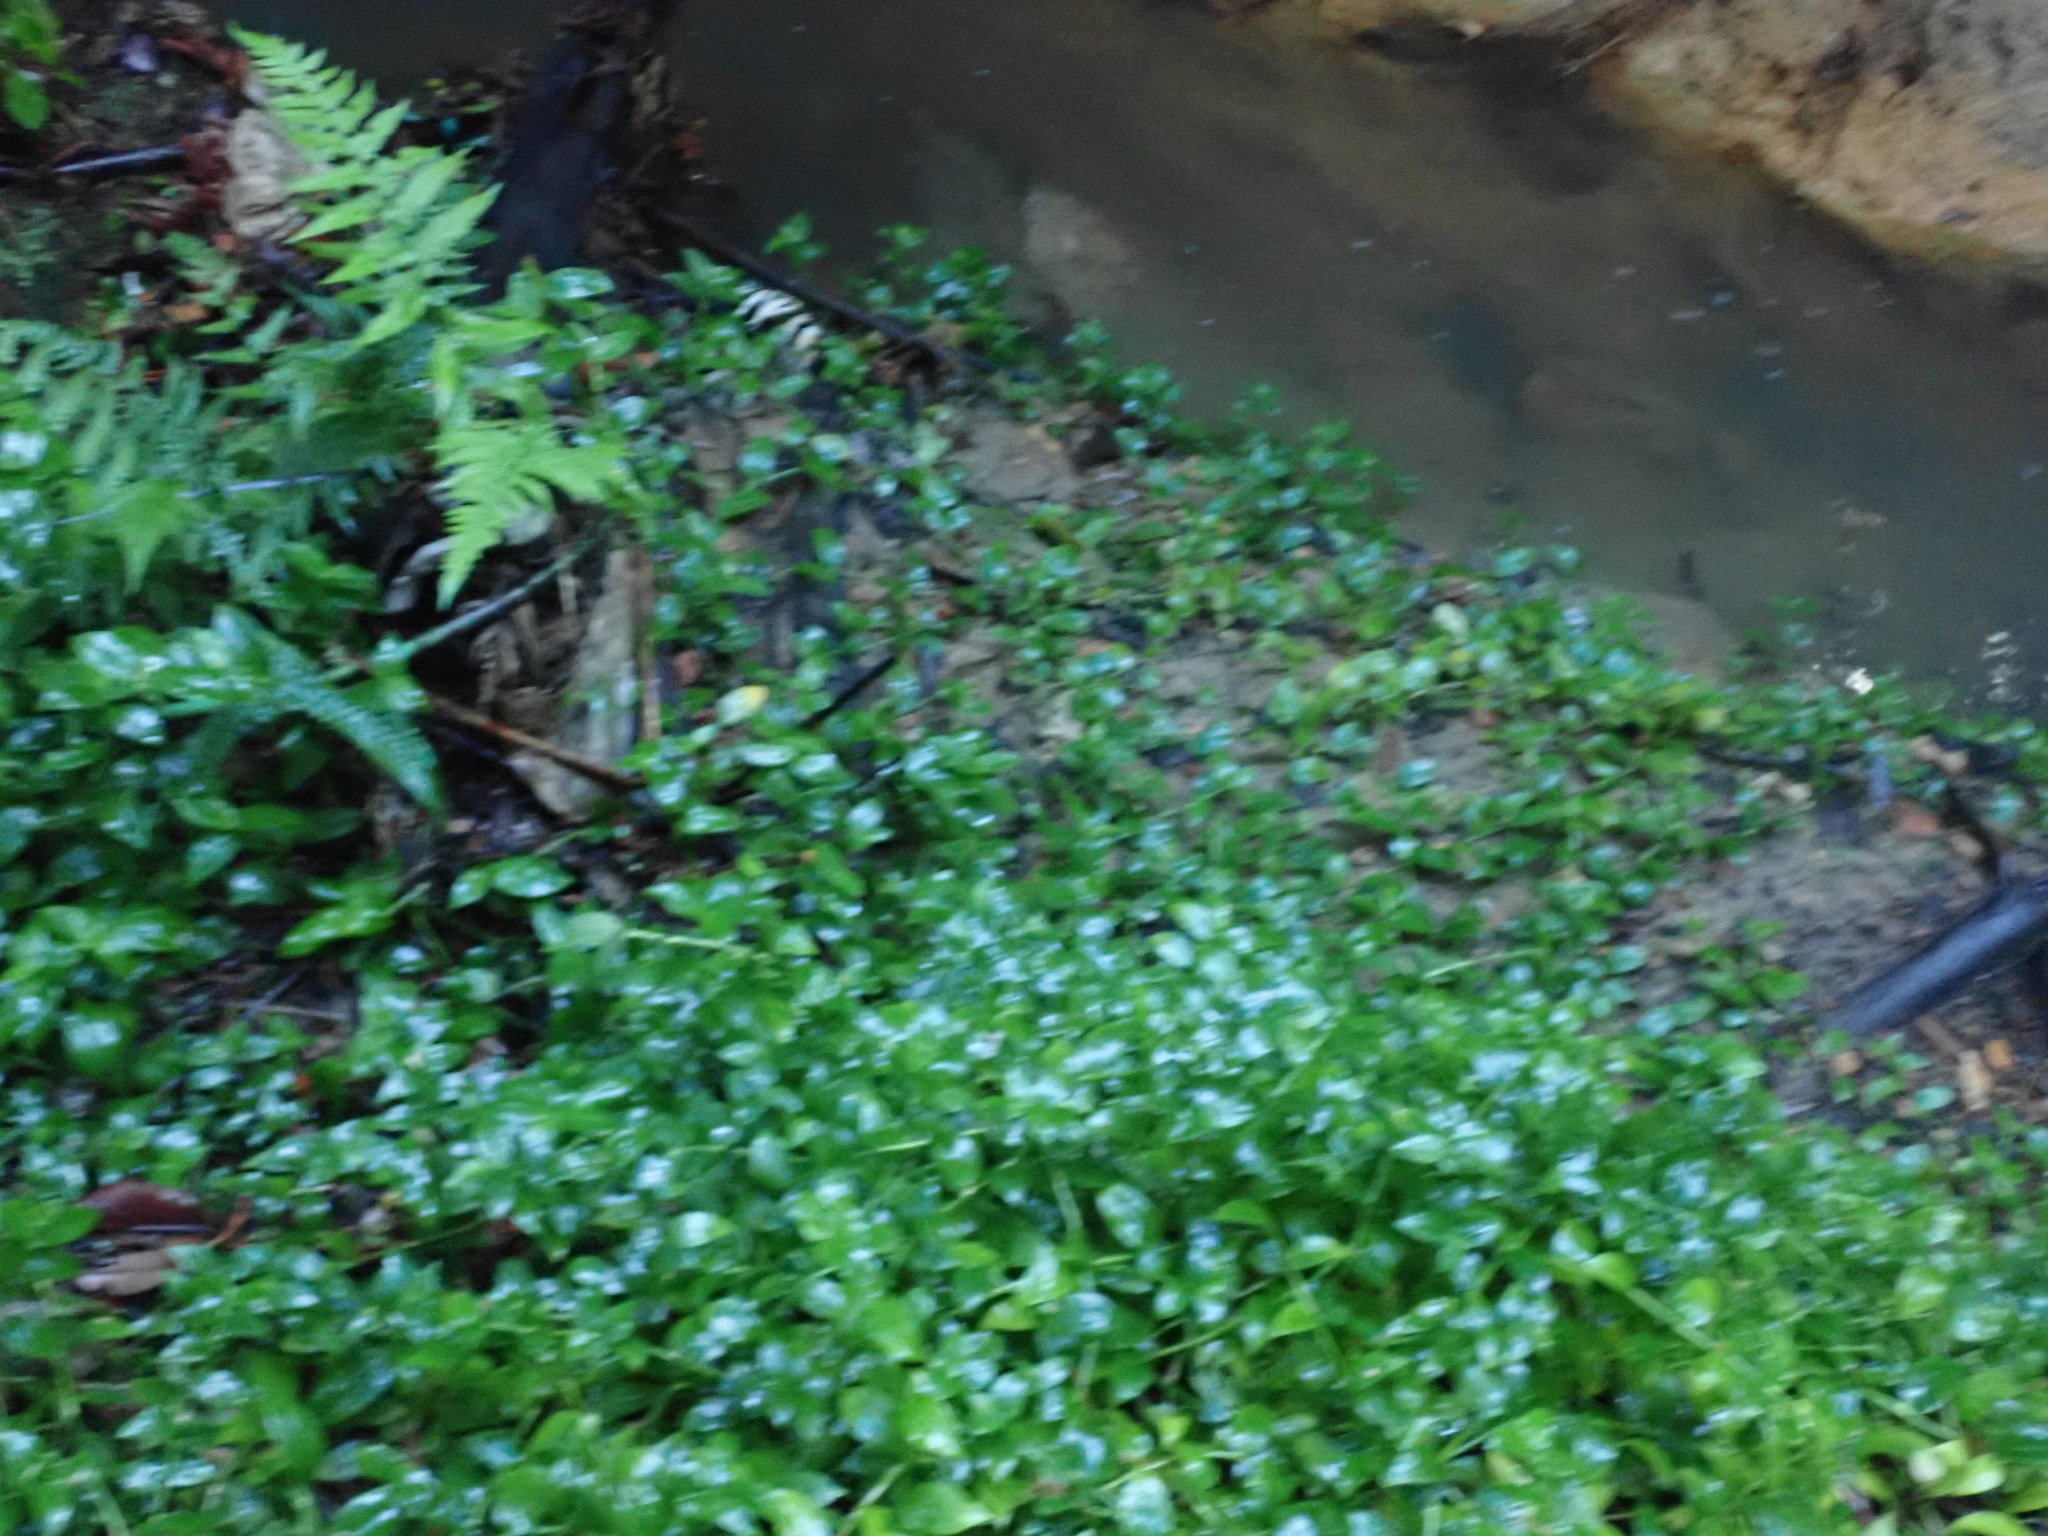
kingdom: Plantae
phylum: Tracheophyta
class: Liliopsida
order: Commelinales
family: Commelinaceae
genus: Tradescantia
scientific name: Tradescantia fluminensis
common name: Wandering-jew
